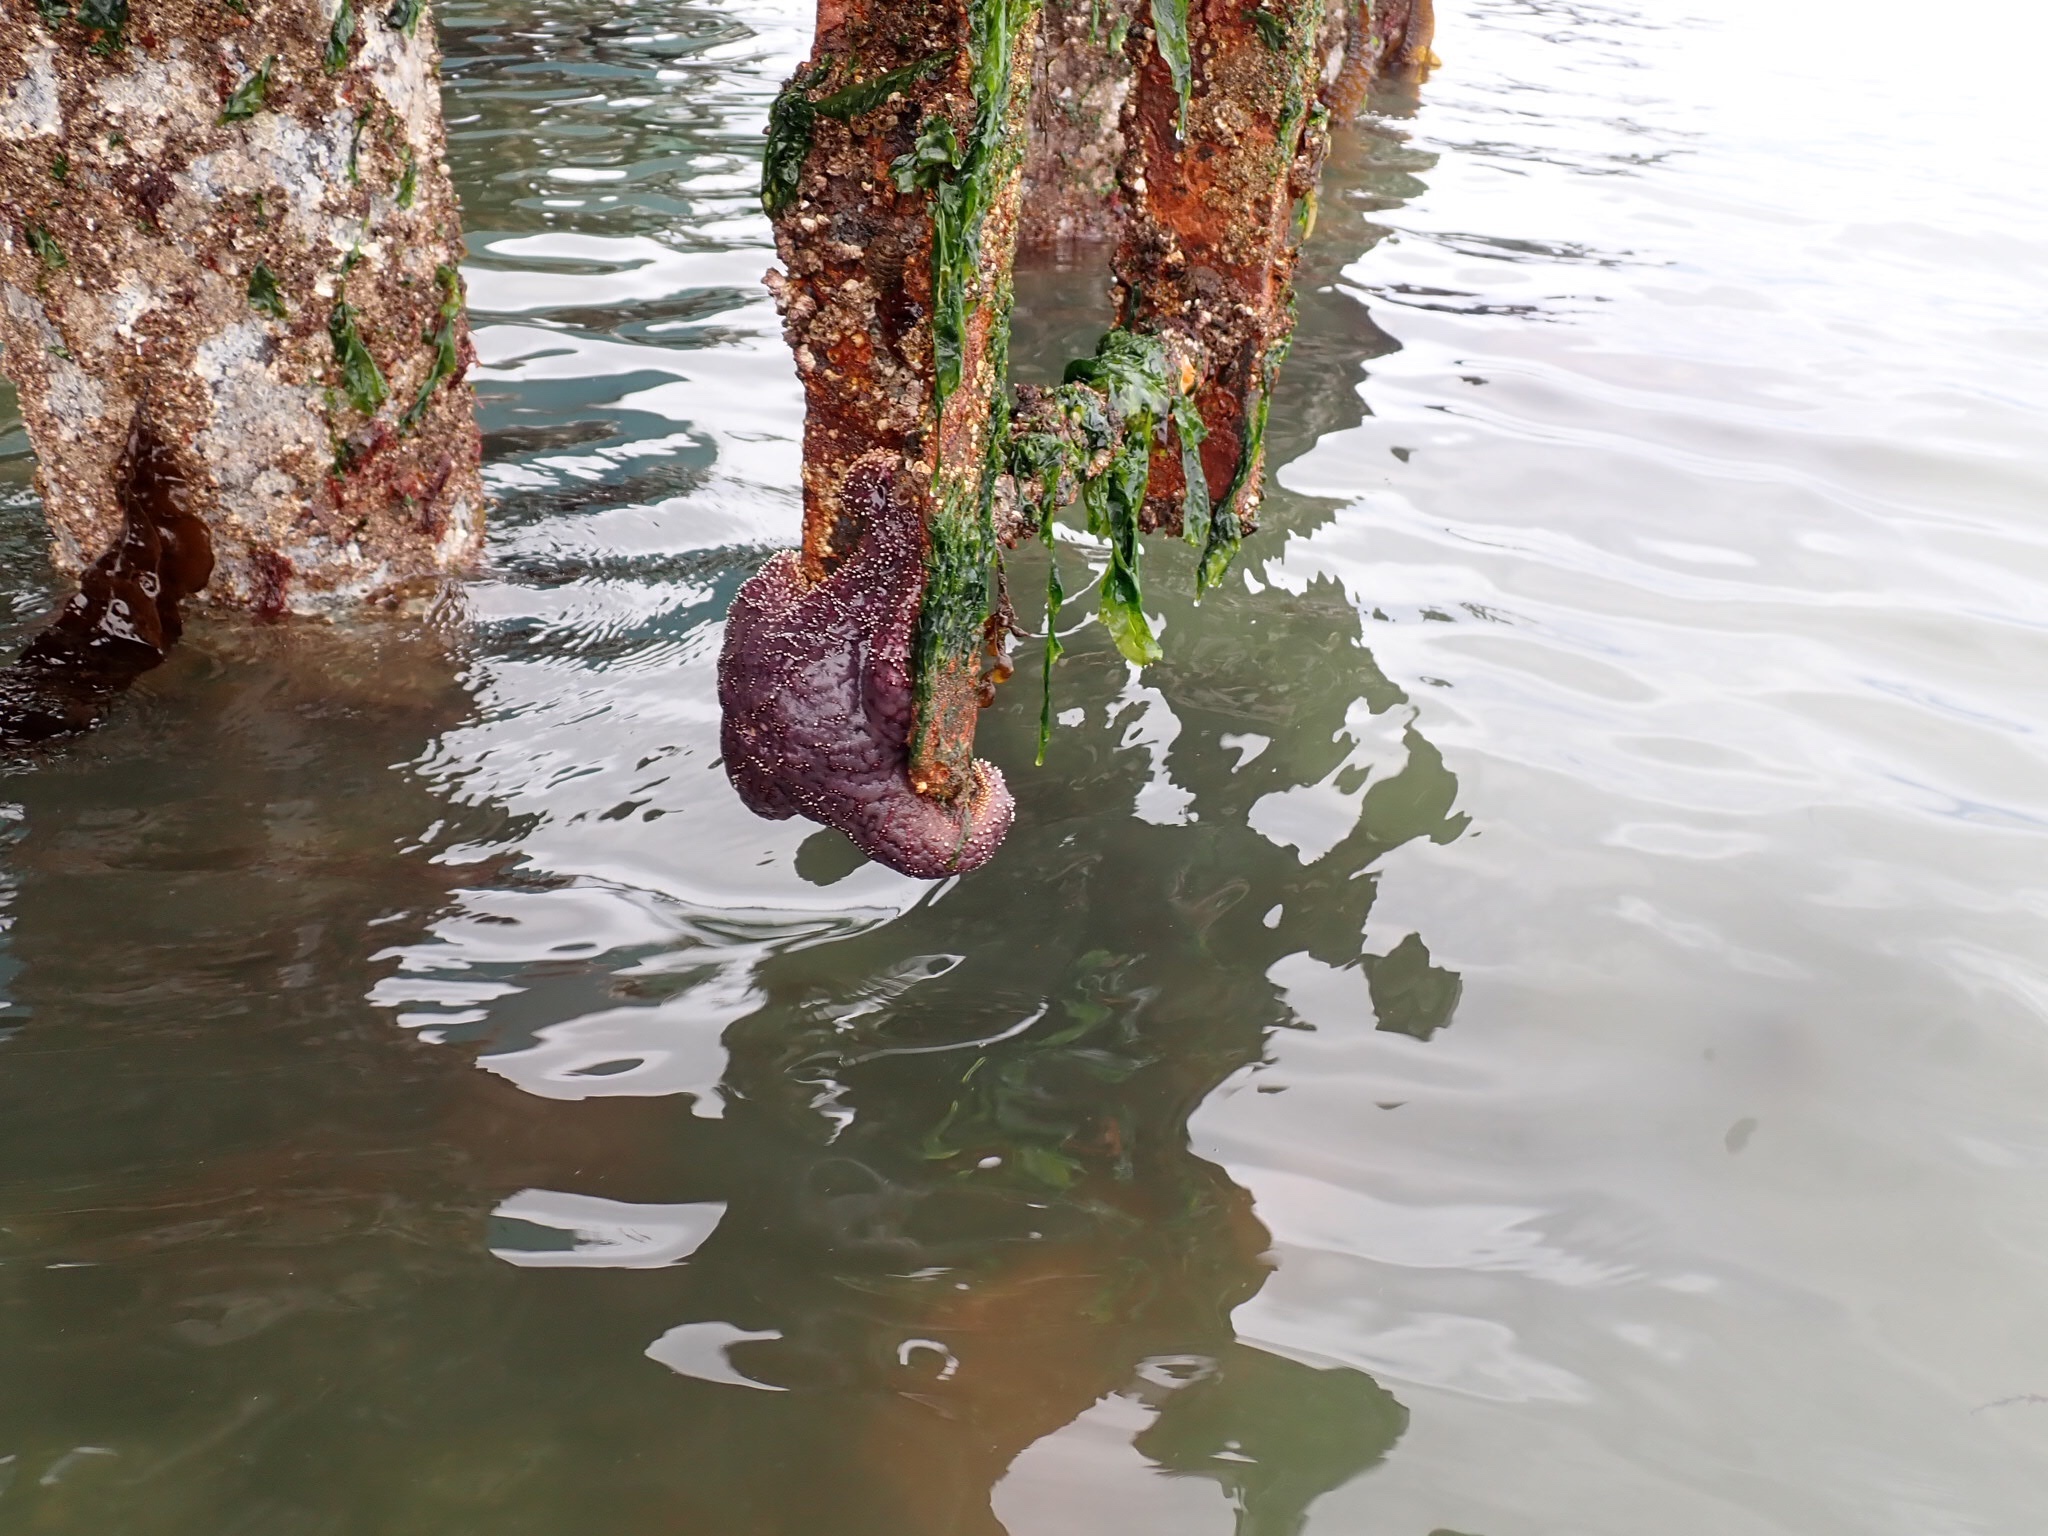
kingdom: Animalia
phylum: Echinodermata
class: Asteroidea
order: Forcipulatida
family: Asteriidae
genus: Pisaster
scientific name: Pisaster ochraceus
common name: Ochre stars
